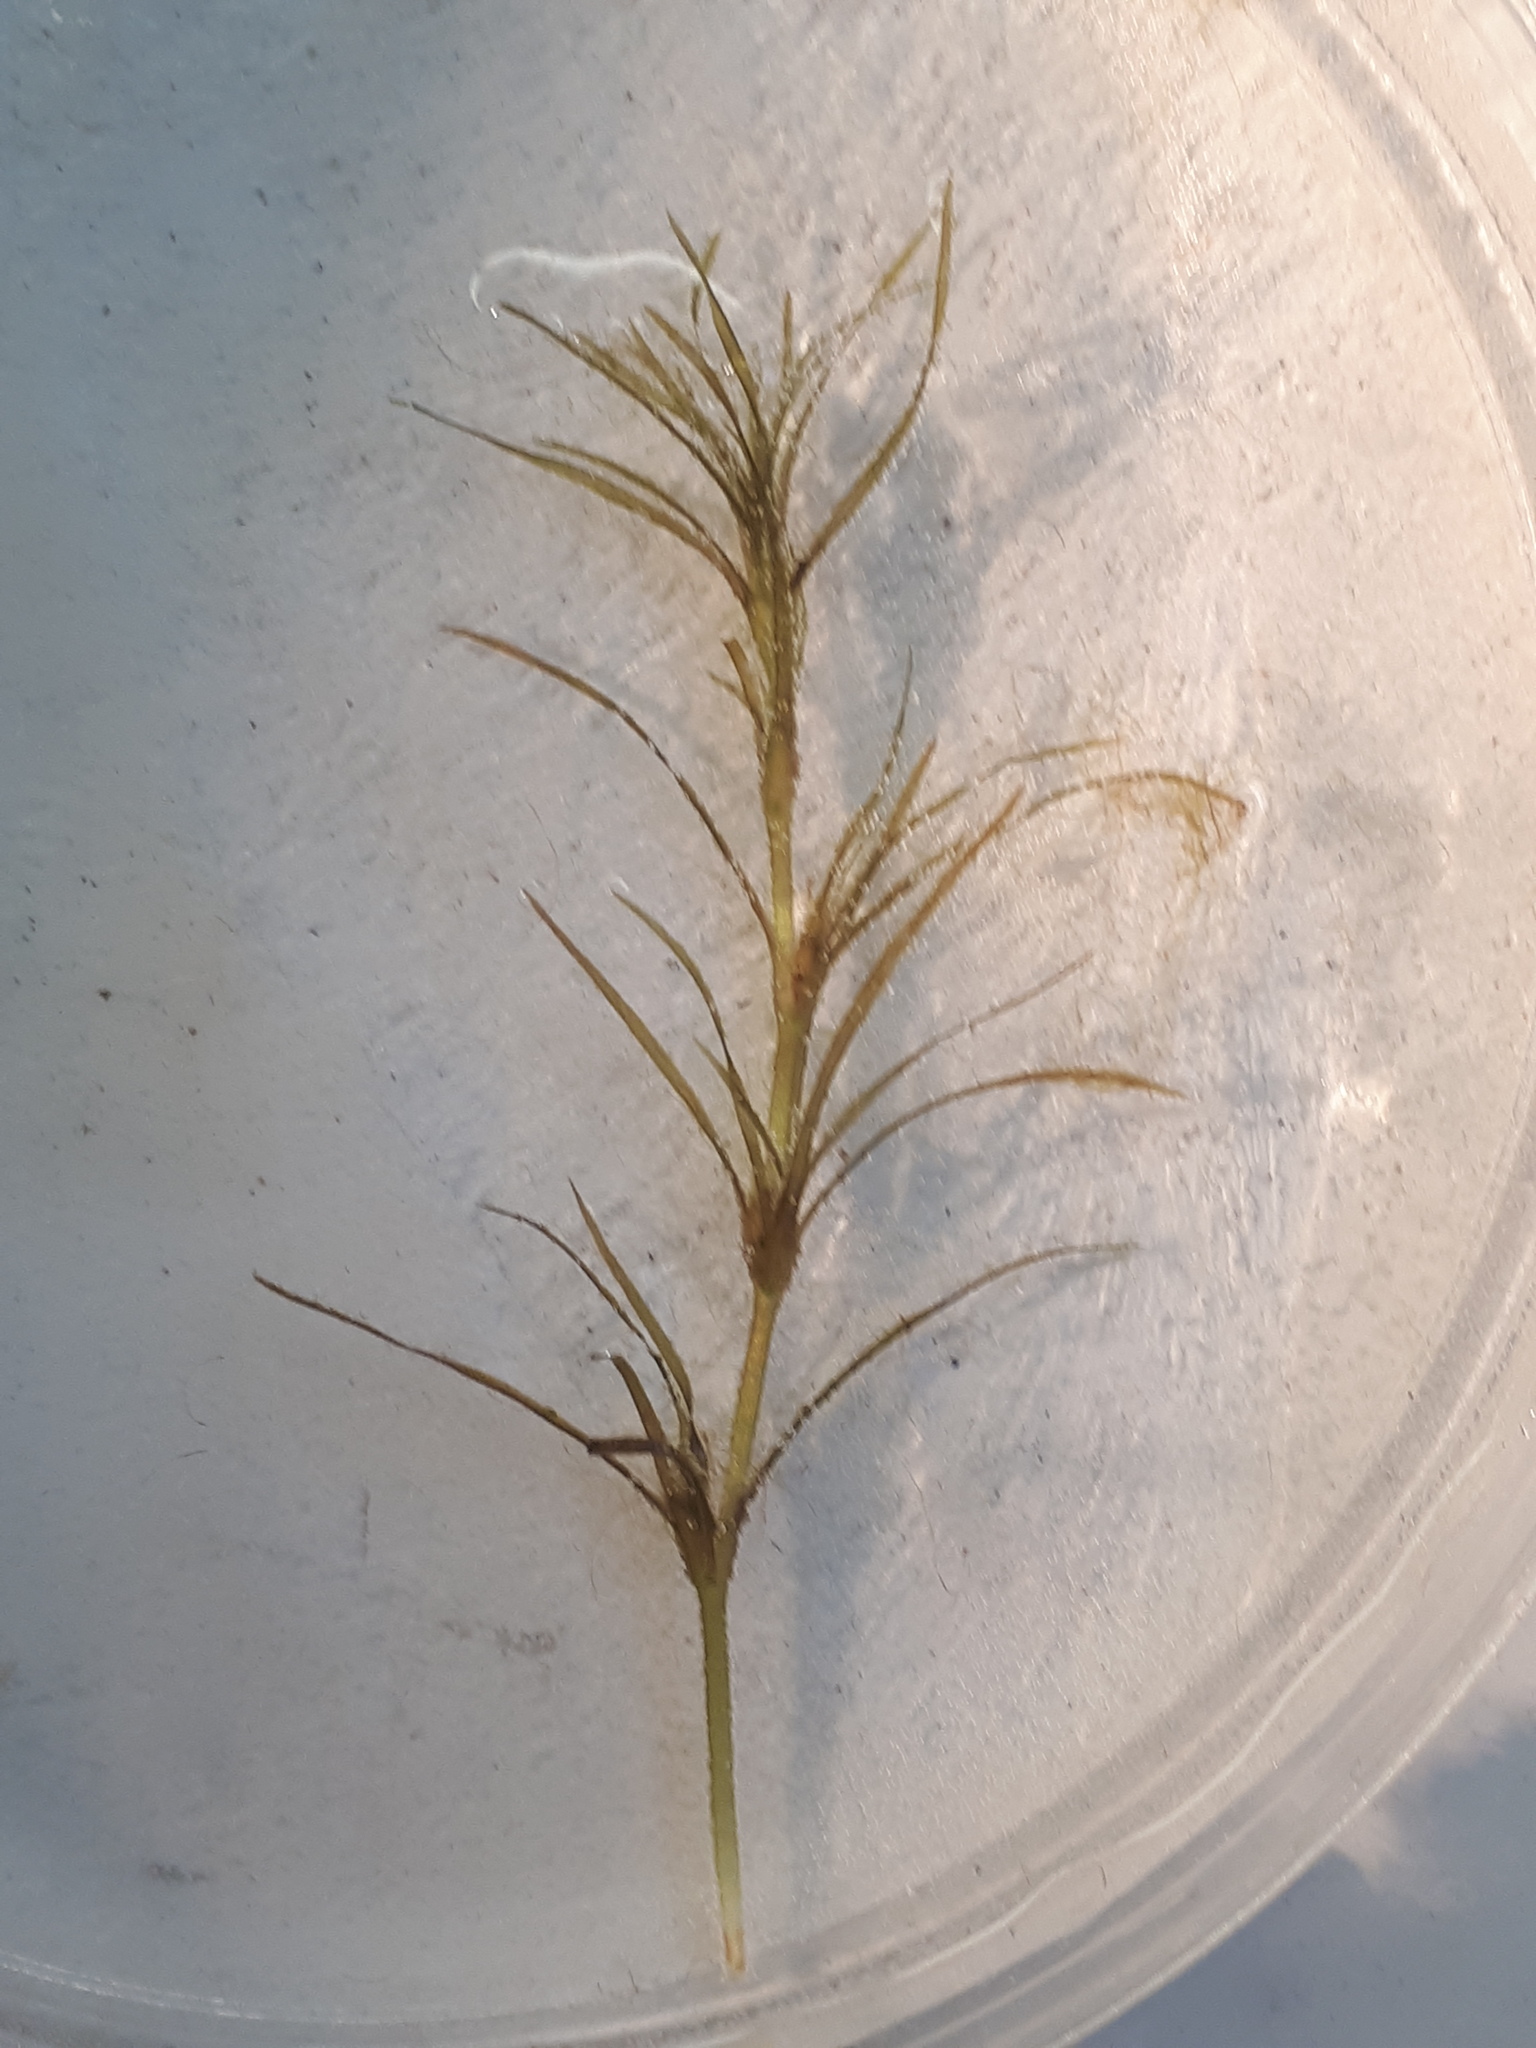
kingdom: Plantae
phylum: Tracheophyta
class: Liliopsida
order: Alismatales
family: Hydrocharitaceae
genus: Najas
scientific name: Najas flexilis
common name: Slender naiad
